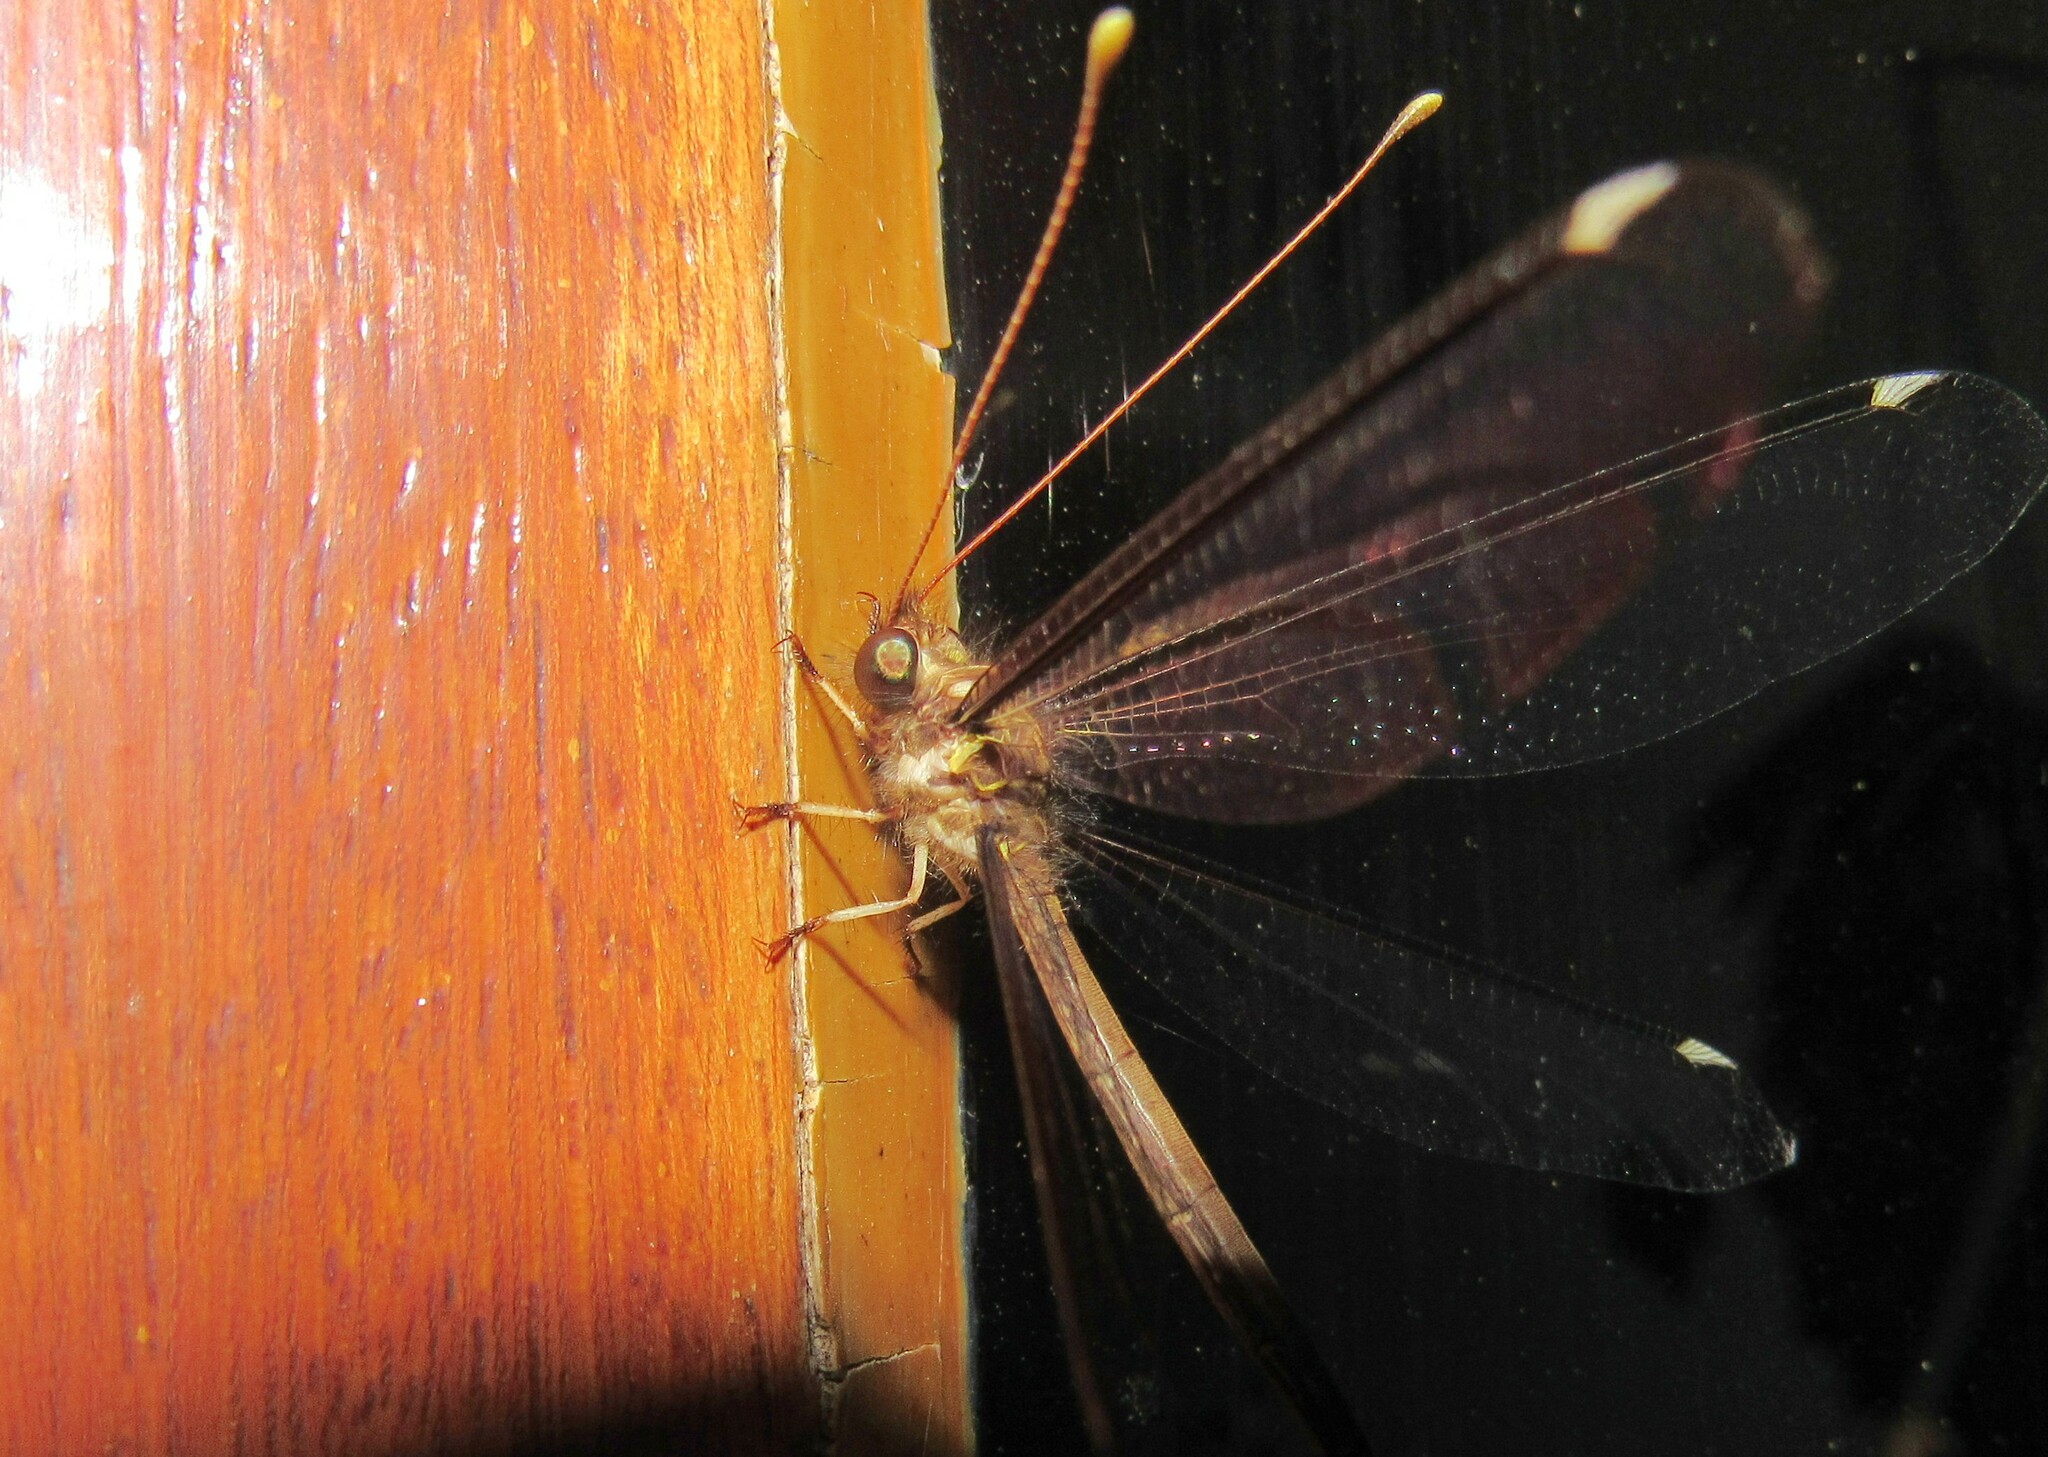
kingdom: Animalia
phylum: Arthropoda
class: Insecta
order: Neuroptera
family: Ascalaphidae
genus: Haploglenius
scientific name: Haploglenius peruvianus
